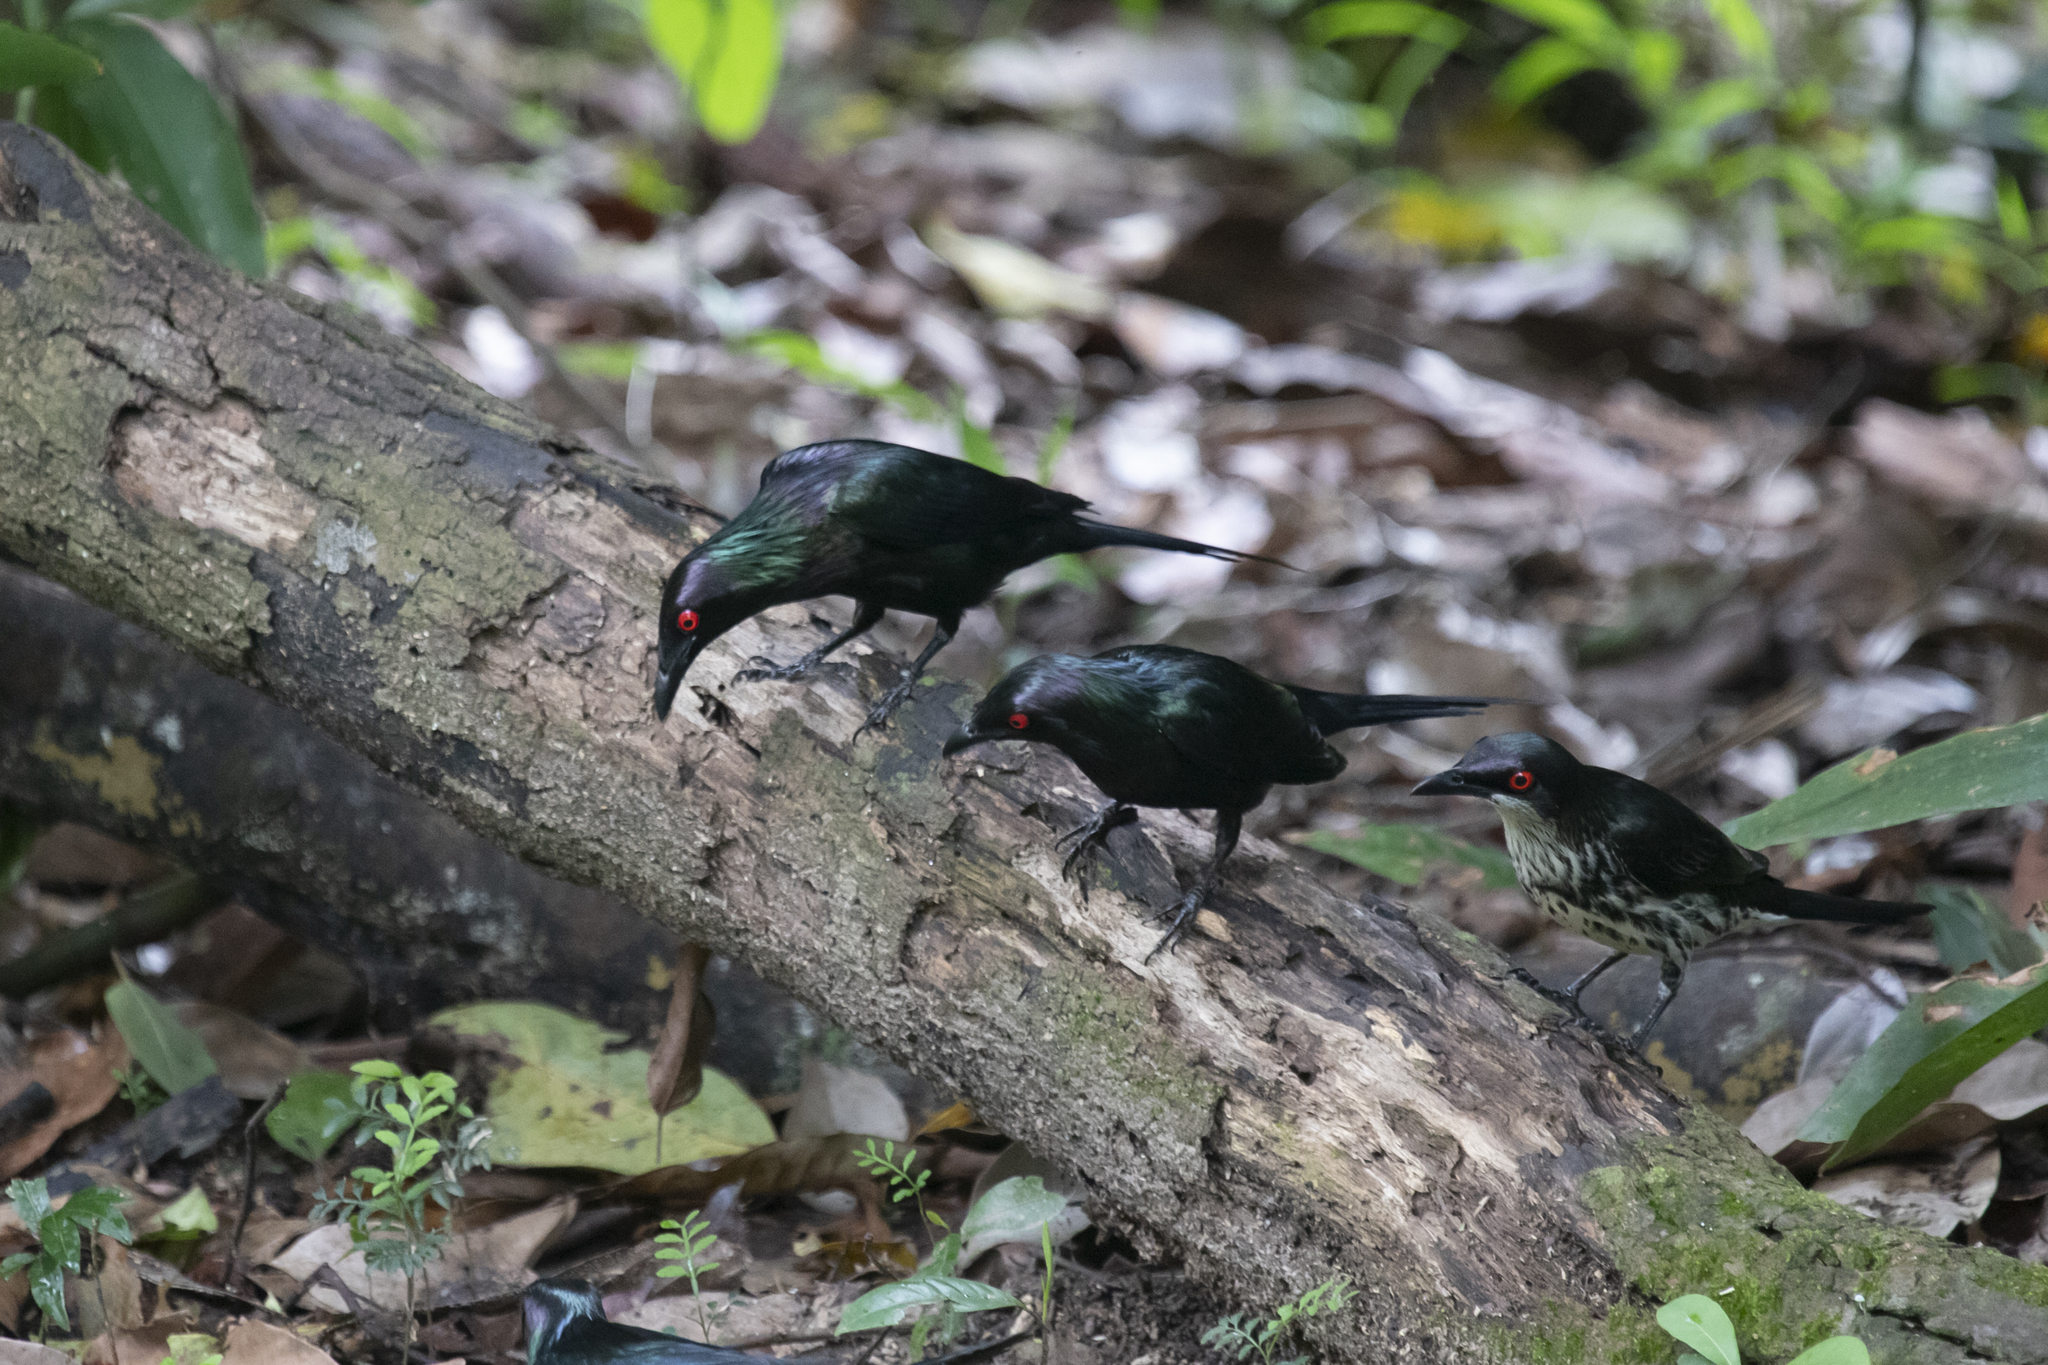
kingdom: Animalia
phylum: Chordata
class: Aves
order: Passeriformes
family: Sturnidae
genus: Aplonis
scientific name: Aplonis metallica
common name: Metallic starling
